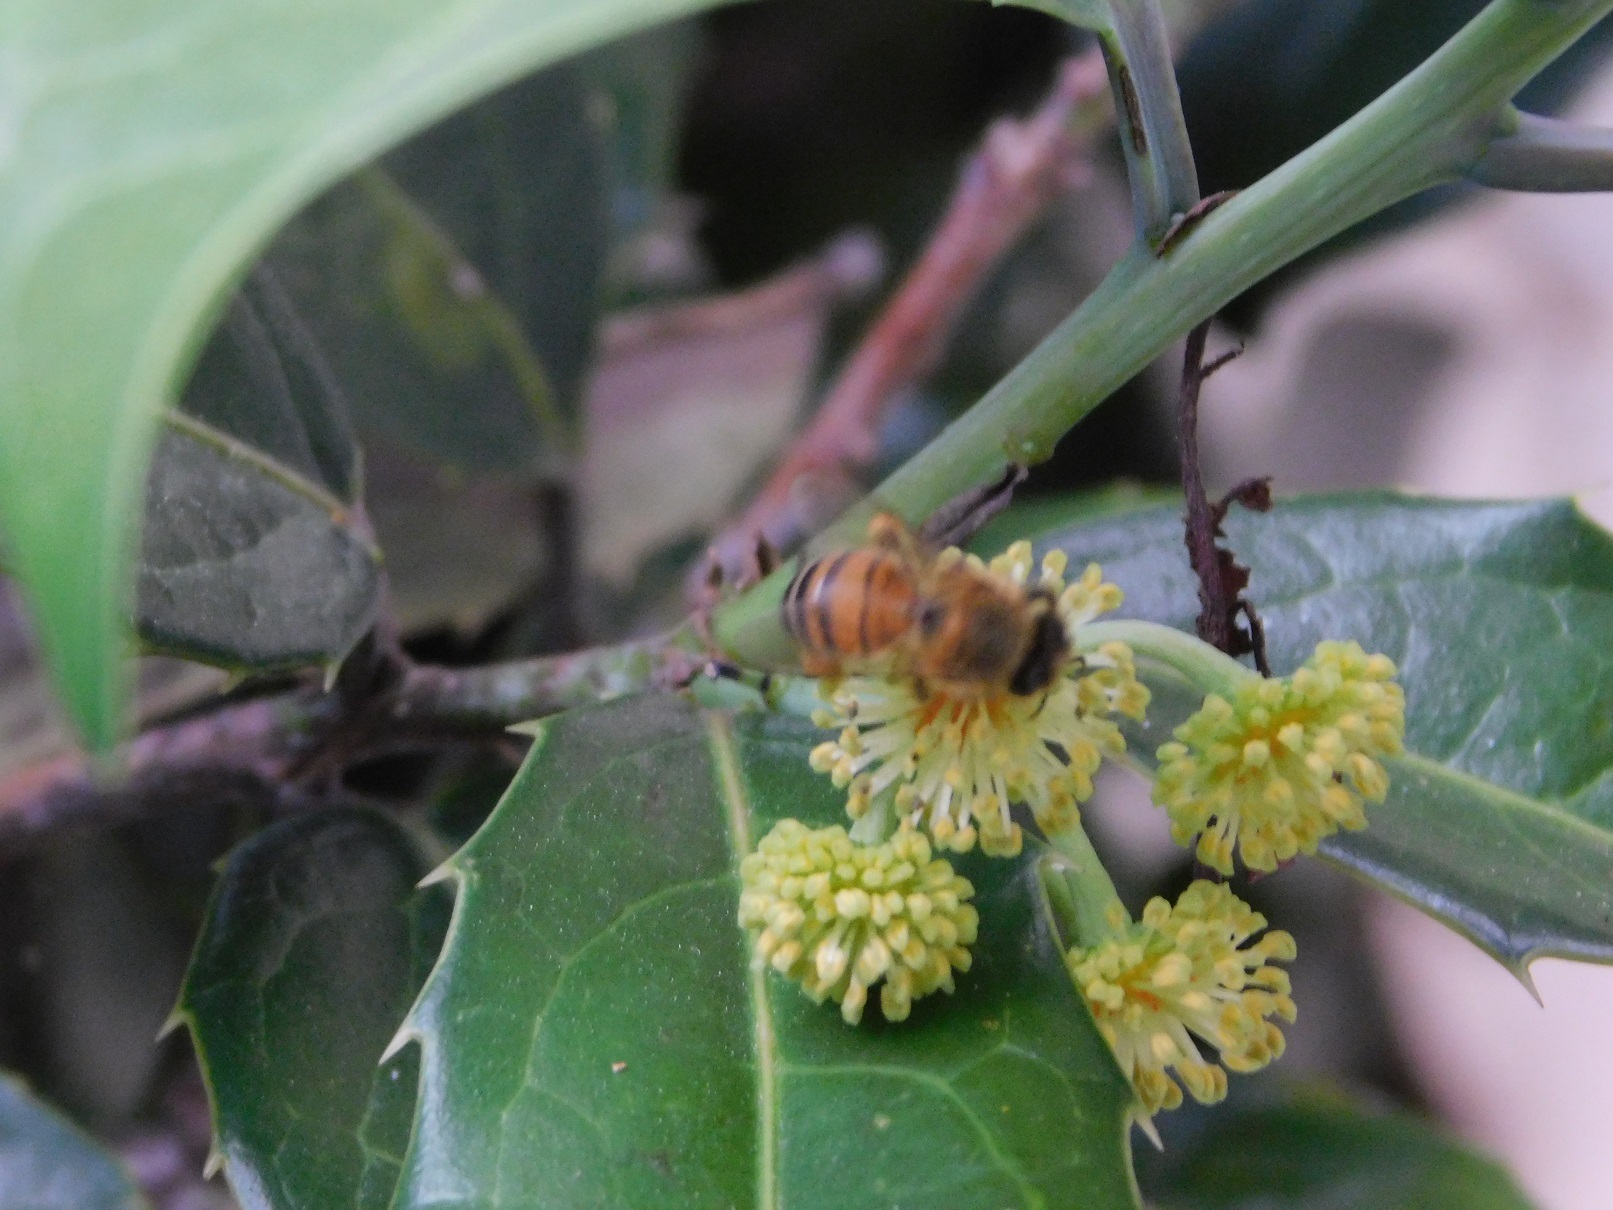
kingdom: Animalia
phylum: Arthropoda
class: Insecta
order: Hymenoptera
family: Apidae
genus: Apis
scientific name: Apis mellifera
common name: Honey bee
